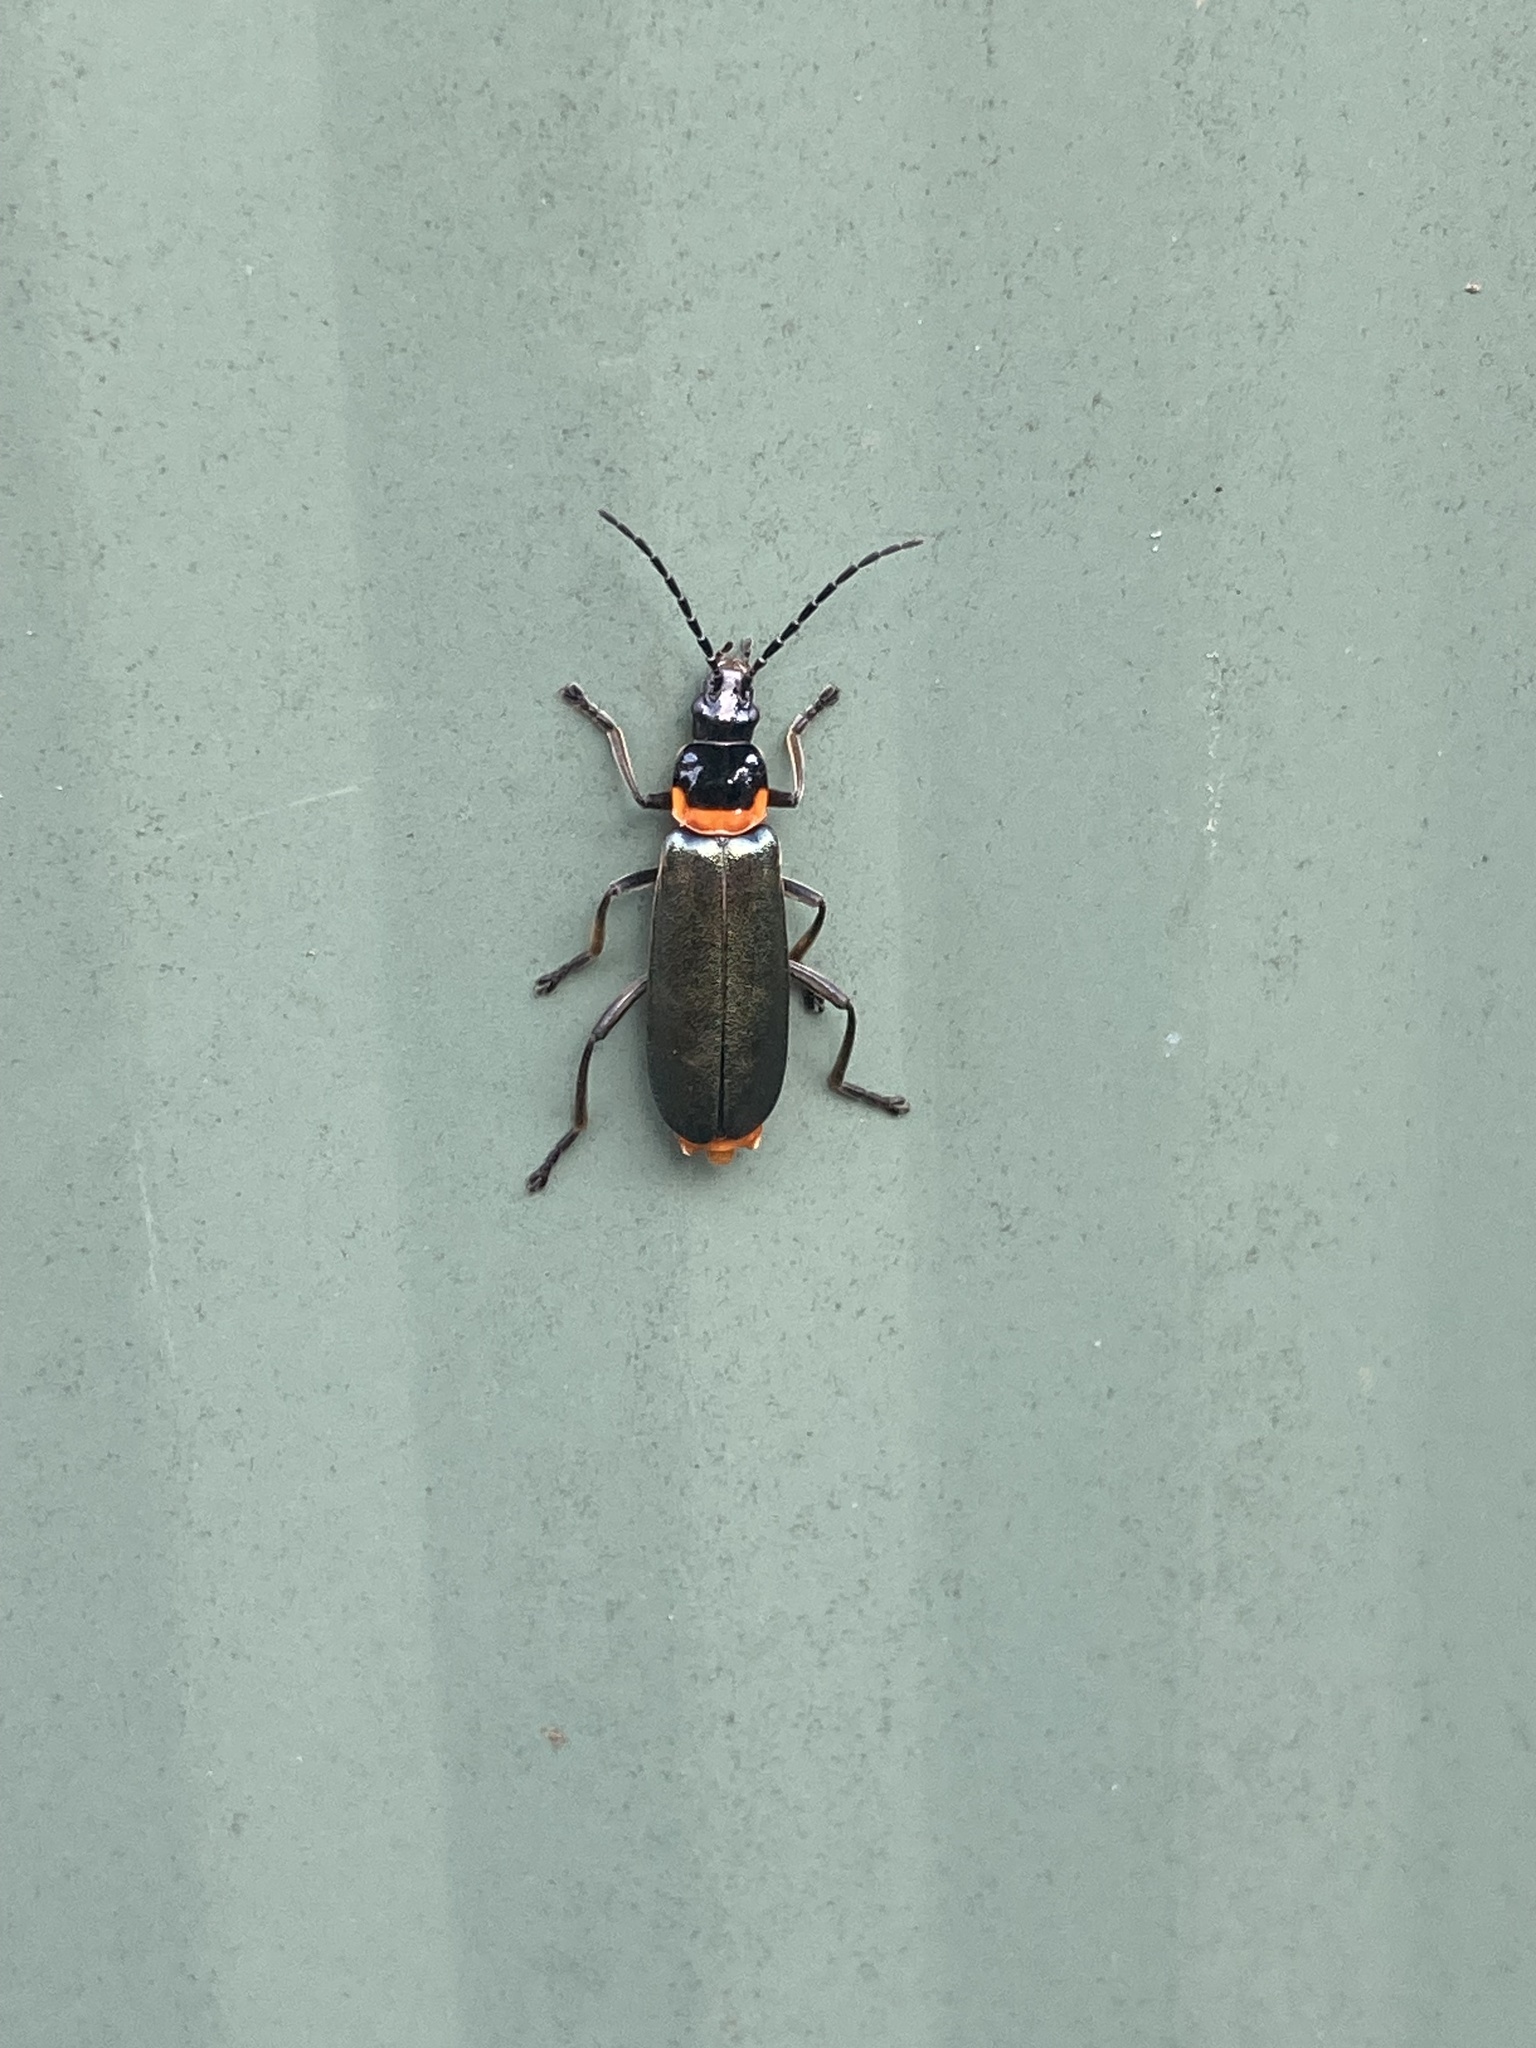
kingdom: Animalia
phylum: Arthropoda
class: Insecta
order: Coleoptera
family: Cantharidae
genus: Chauliognathus
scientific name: Chauliognathus
